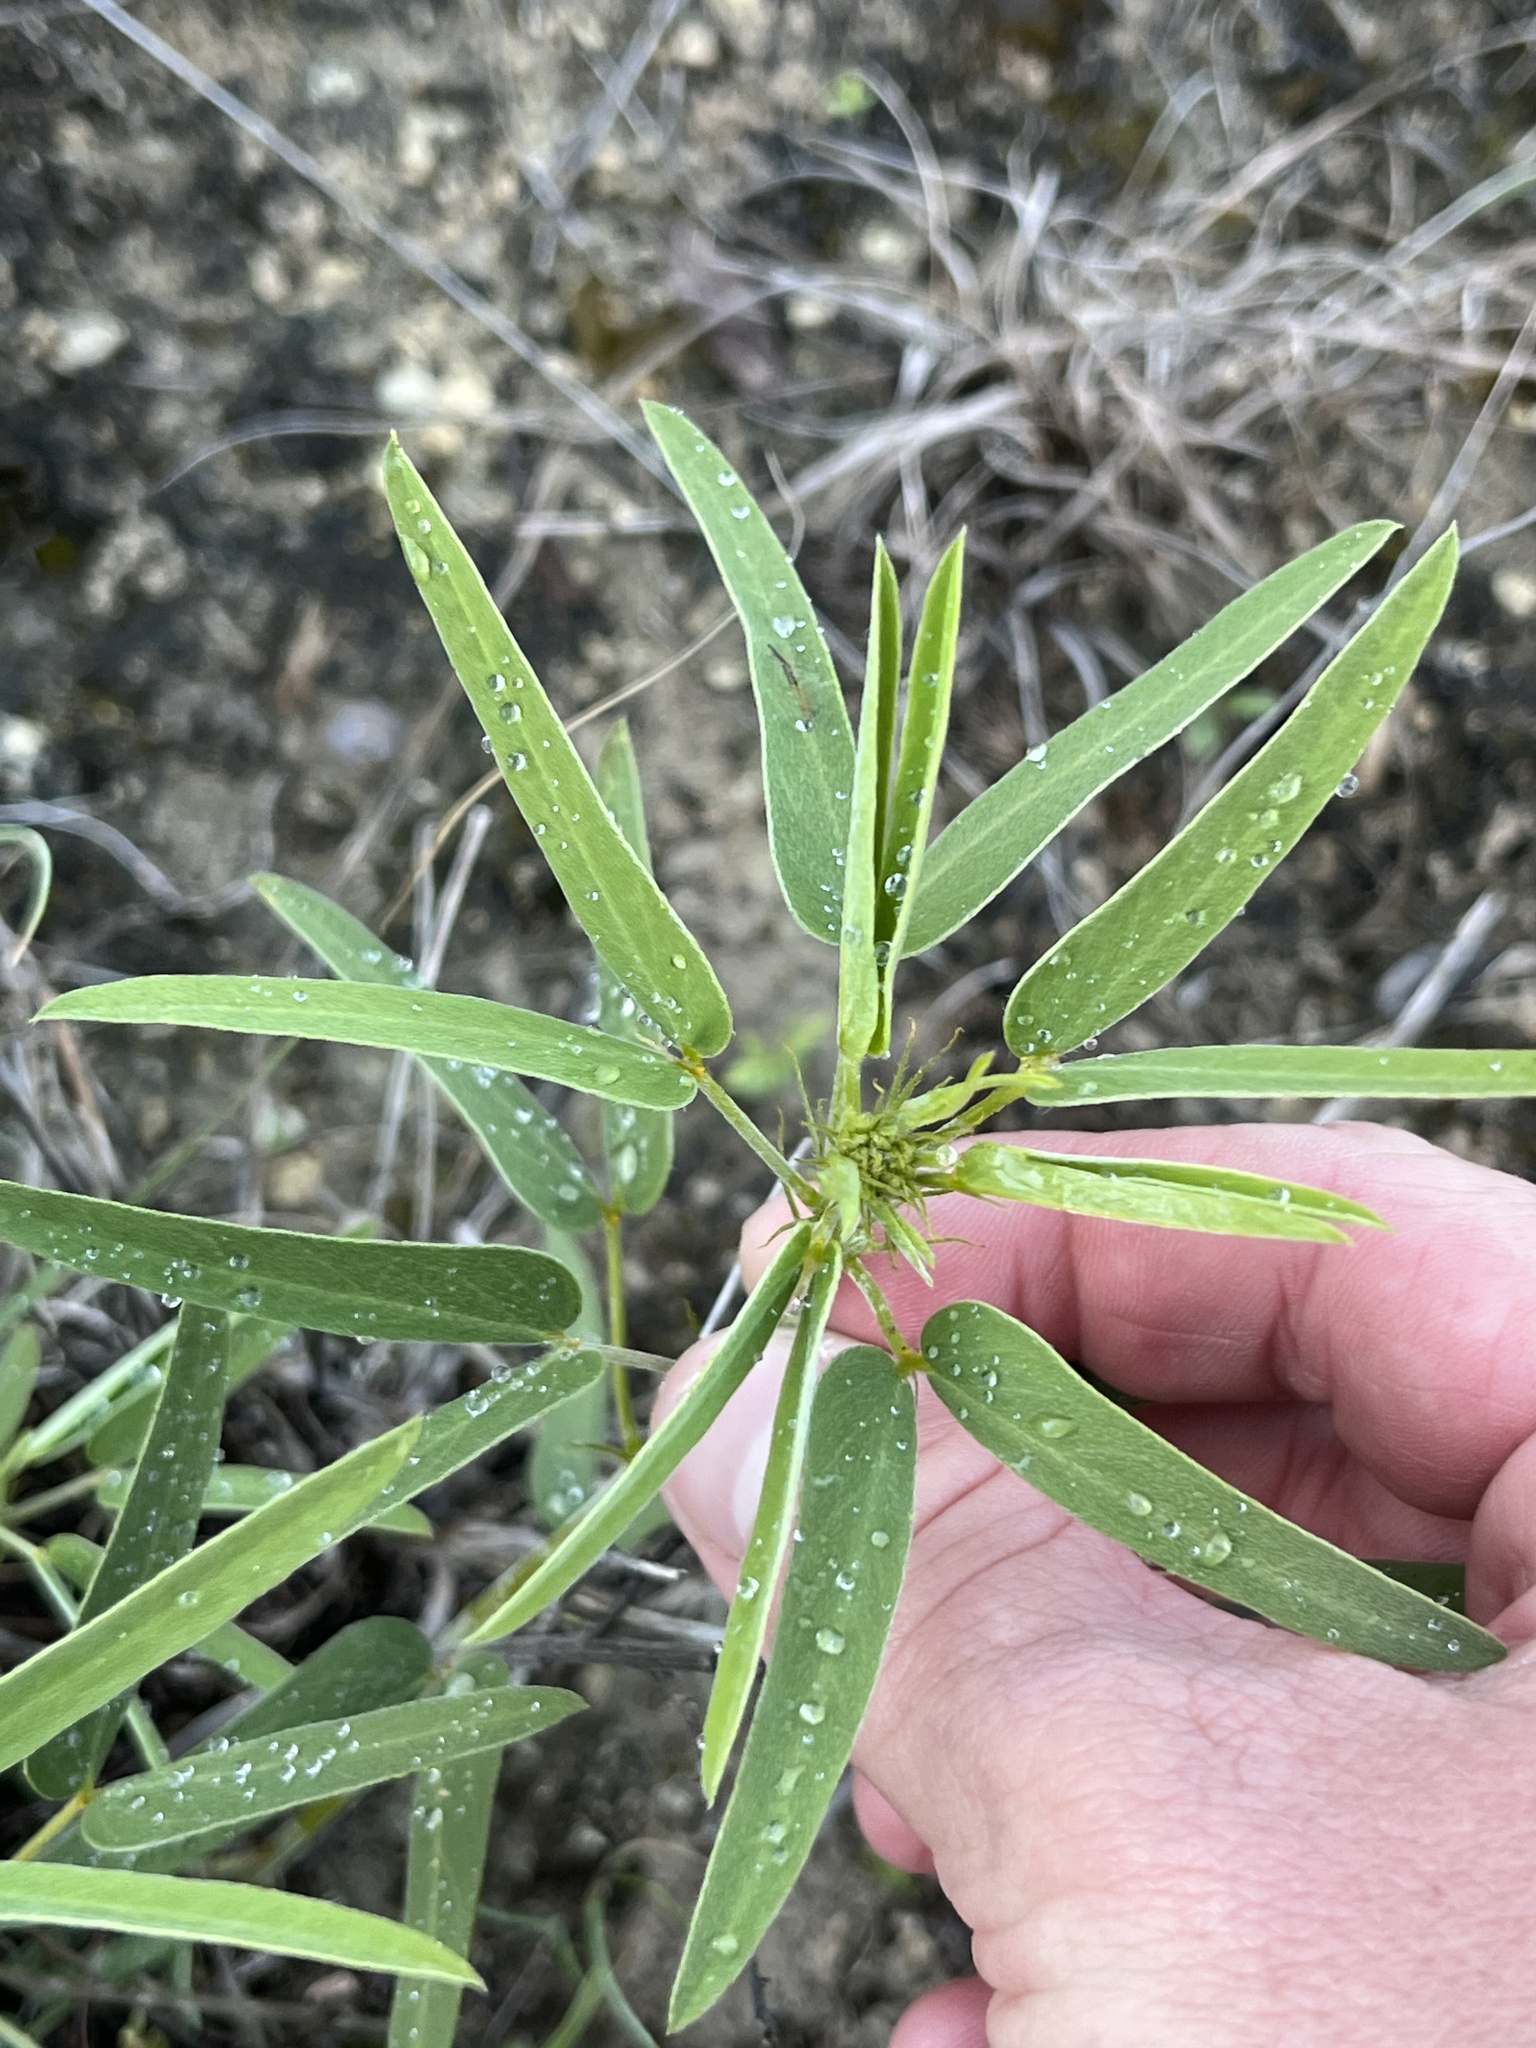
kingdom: Plantae
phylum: Tracheophyta
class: Magnoliopsida
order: Fabales
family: Fabaceae
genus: Senna
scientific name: Senna roemeriana
